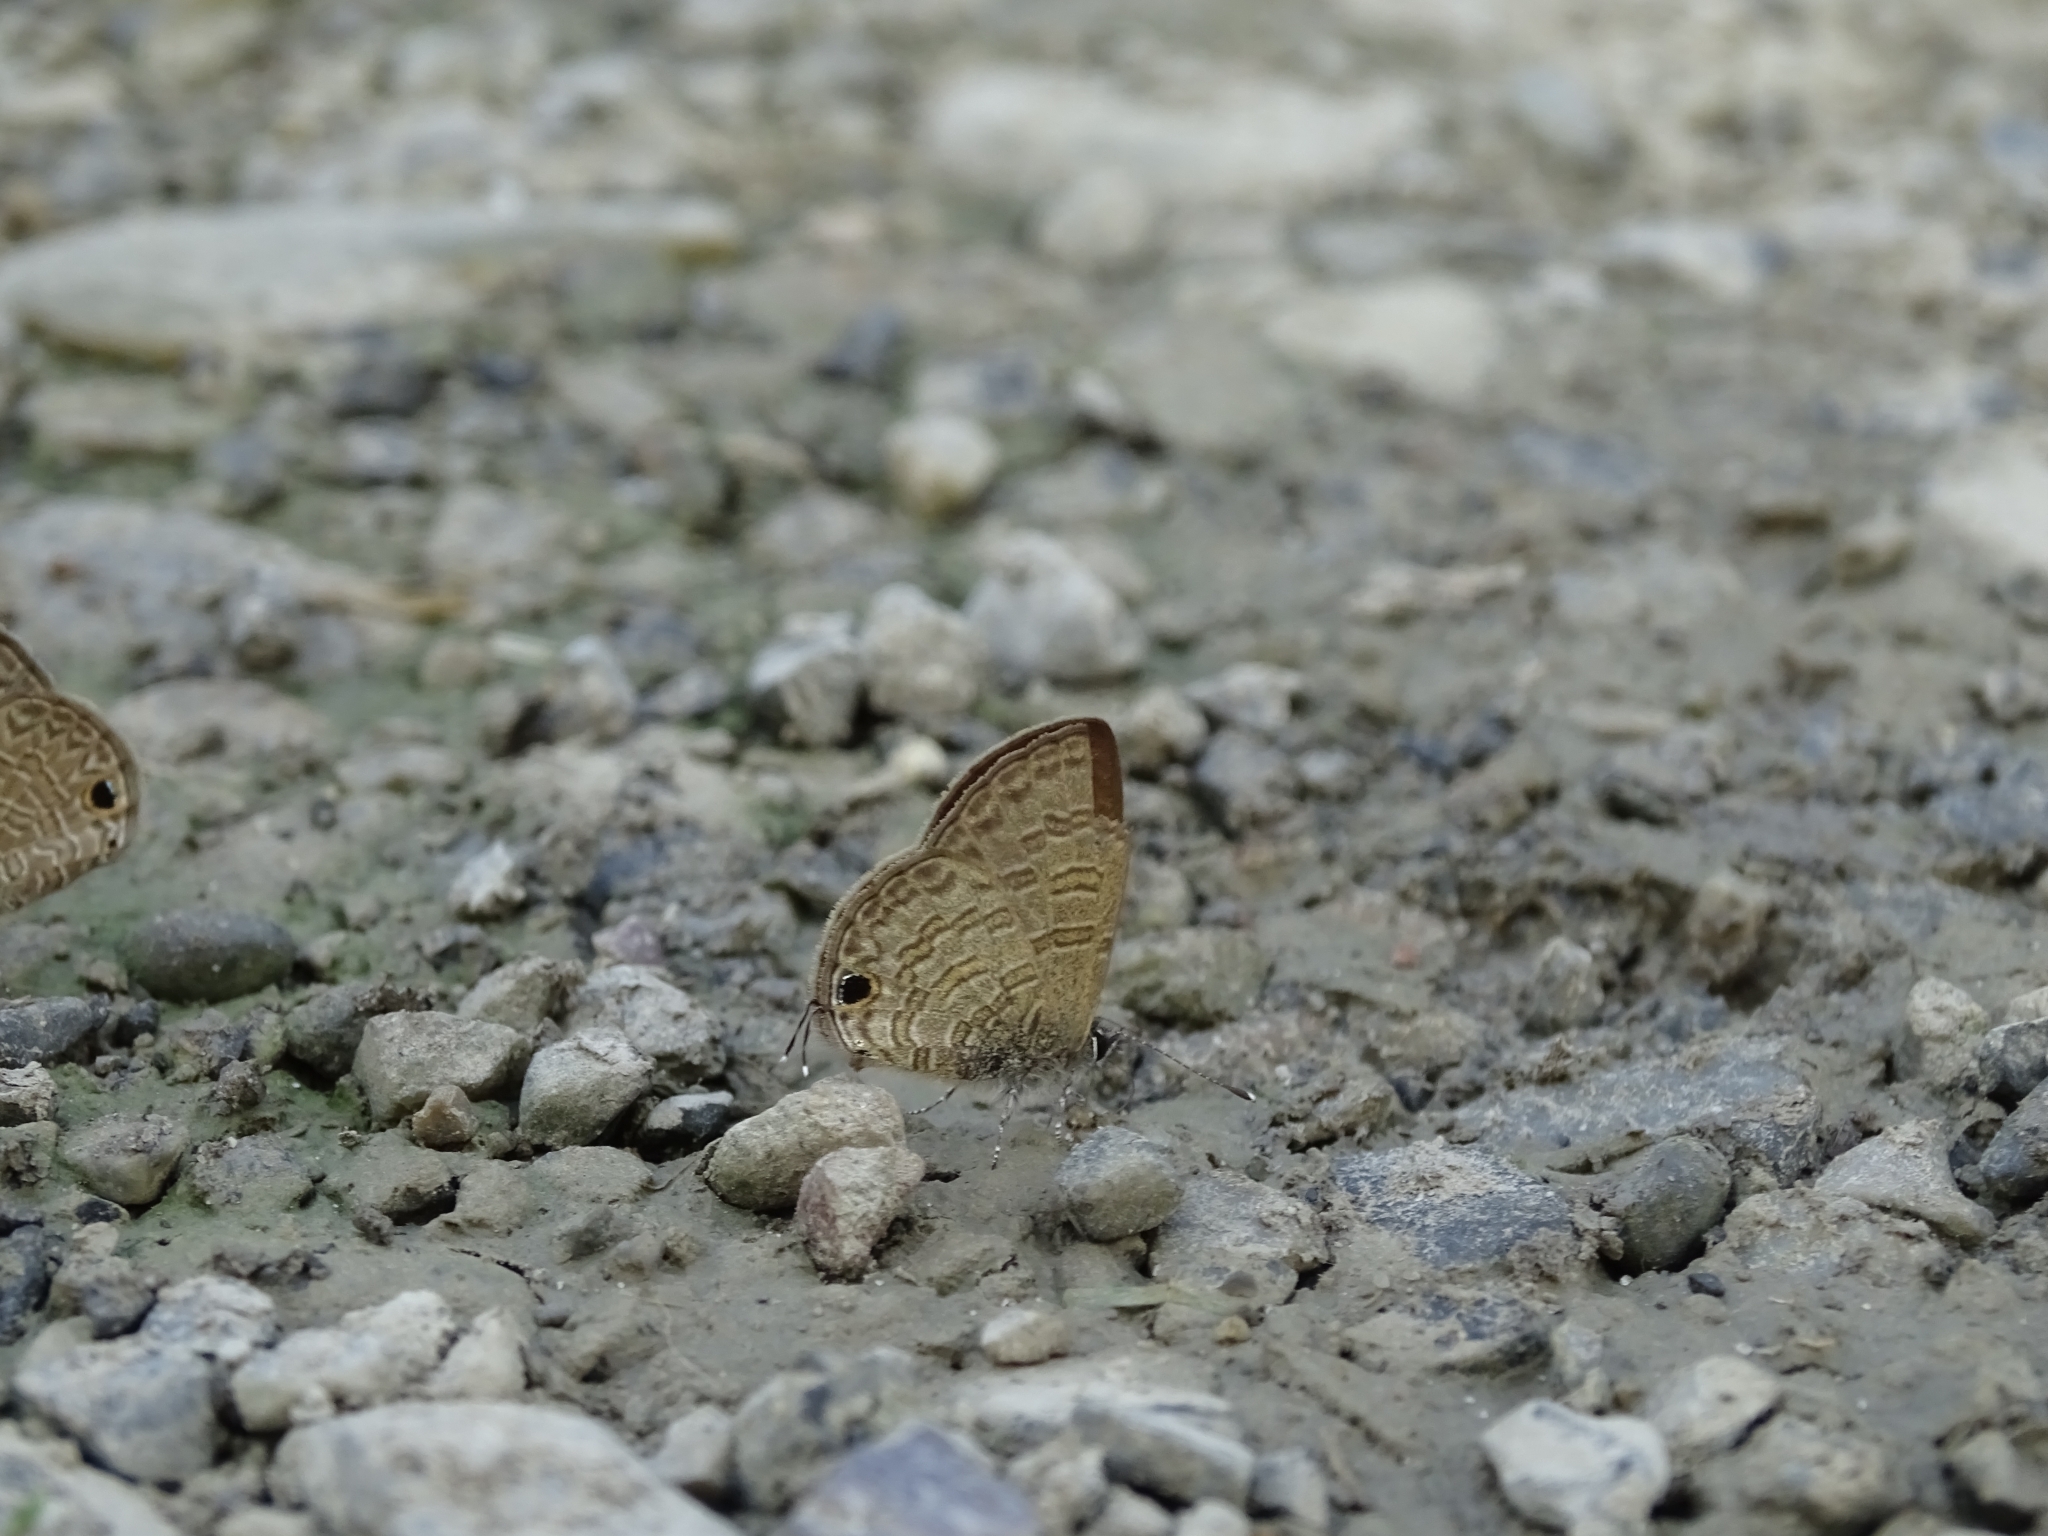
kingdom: Animalia
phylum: Arthropoda
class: Insecta
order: Lepidoptera
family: Lycaenidae
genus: Prosotas
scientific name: Prosotas nora
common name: Common line blue
